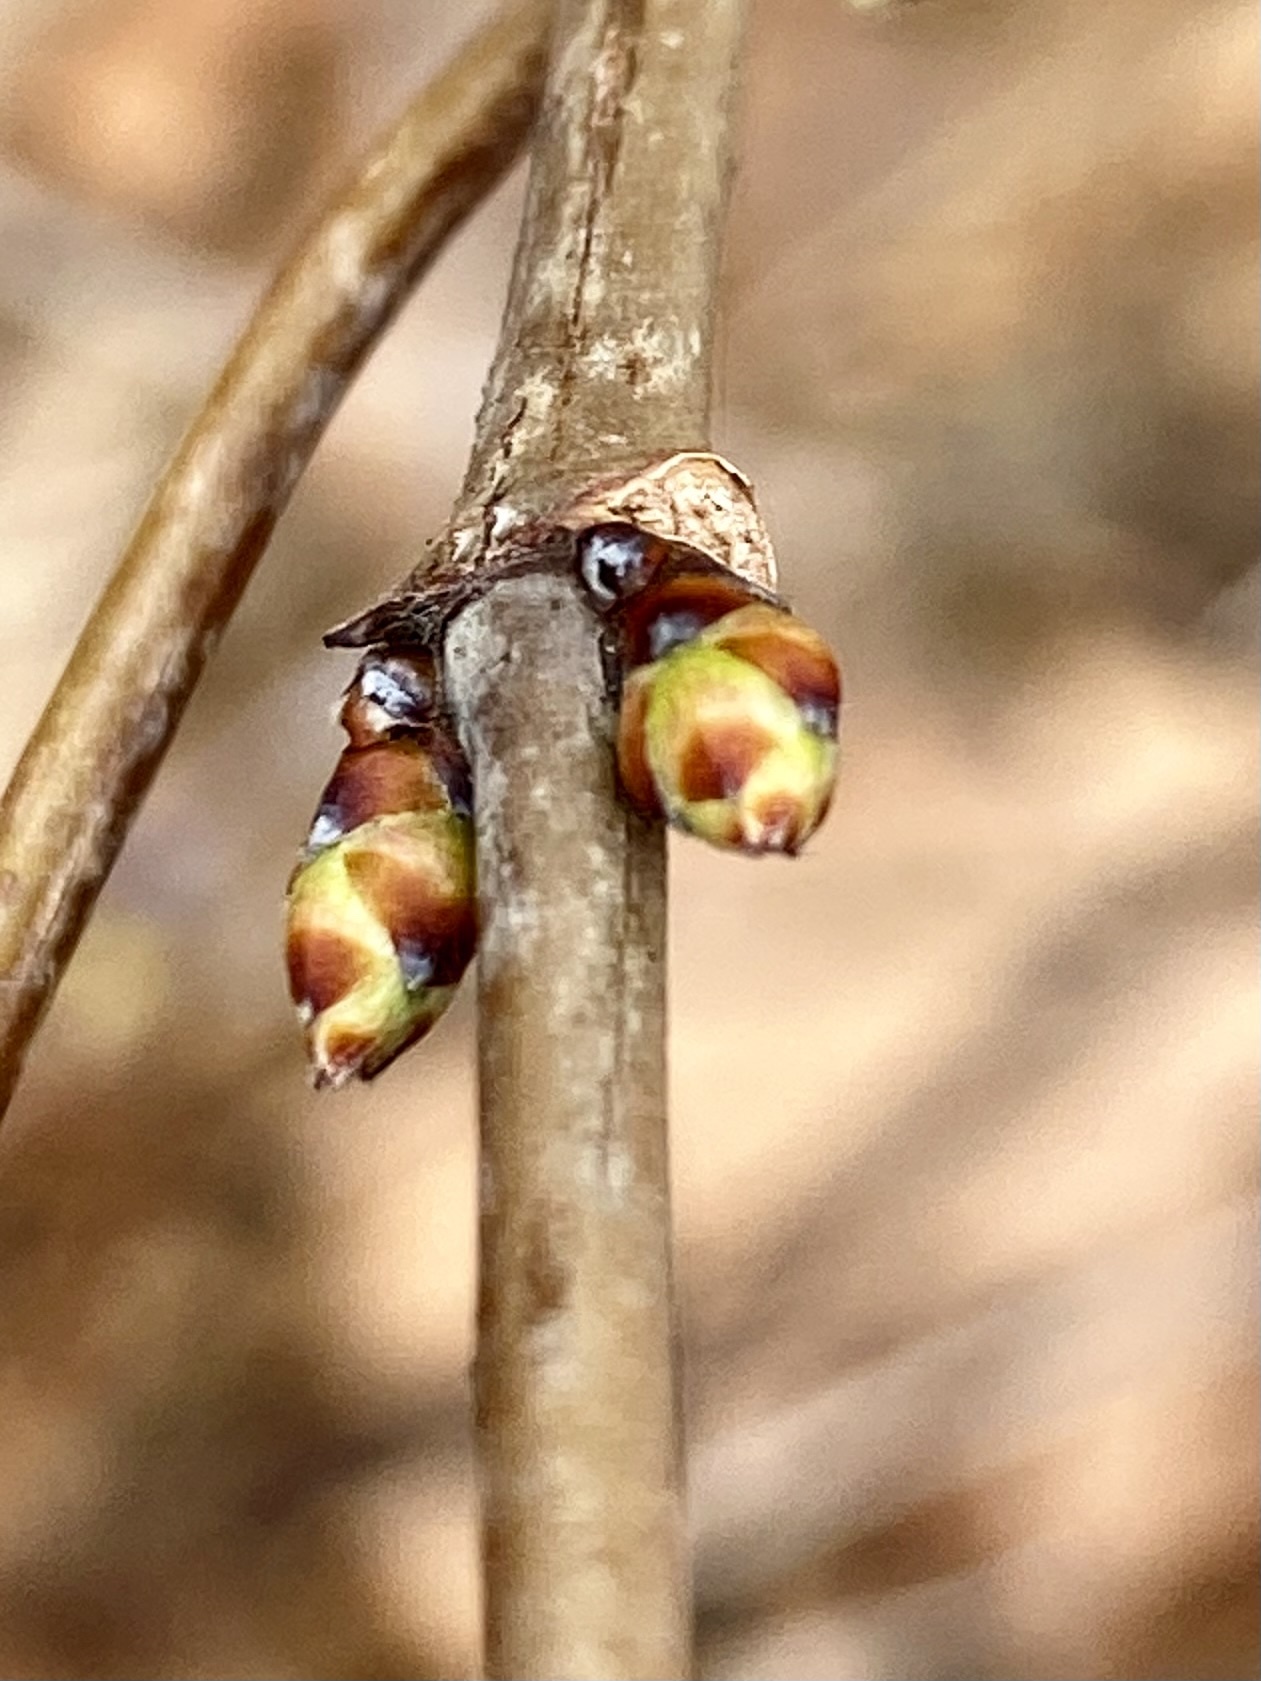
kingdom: Plantae
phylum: Tracheophyta
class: Magnoliopsida
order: Rosales
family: Rosaceae
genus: Rhodotypos
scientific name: Rhodotypos scandens
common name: Jetbead
